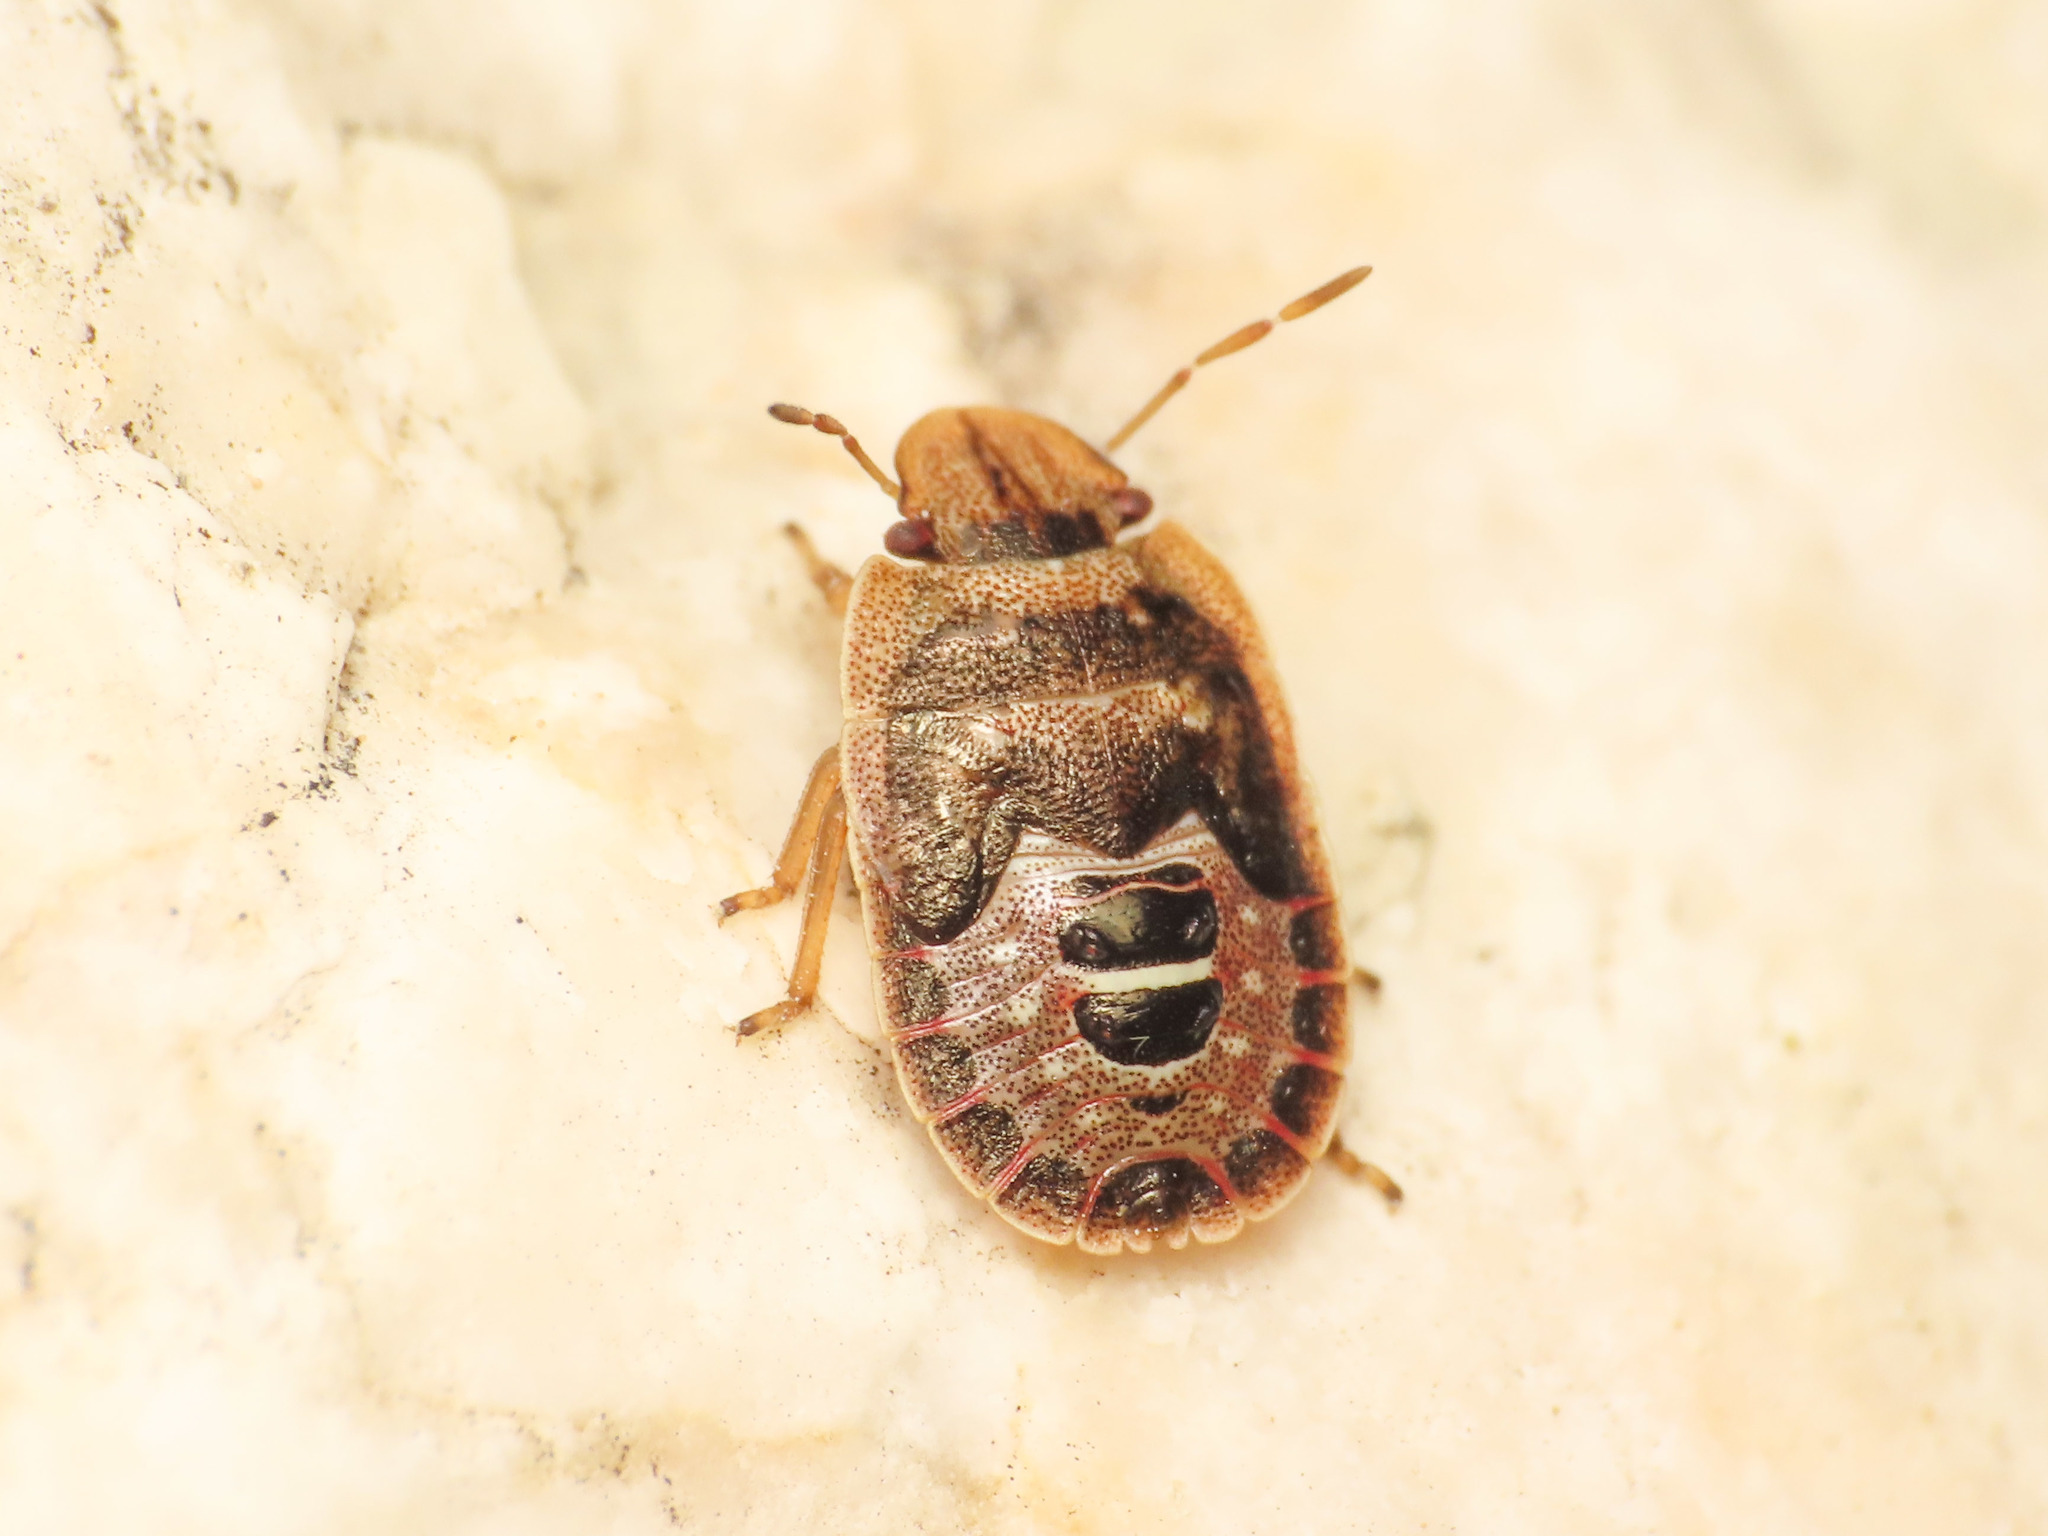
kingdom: Animalia
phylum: Arthropoda
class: Insecta
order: Hemiptera
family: Pentatomidae
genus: Sciocoris
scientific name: Sciocoris macrocephalus
